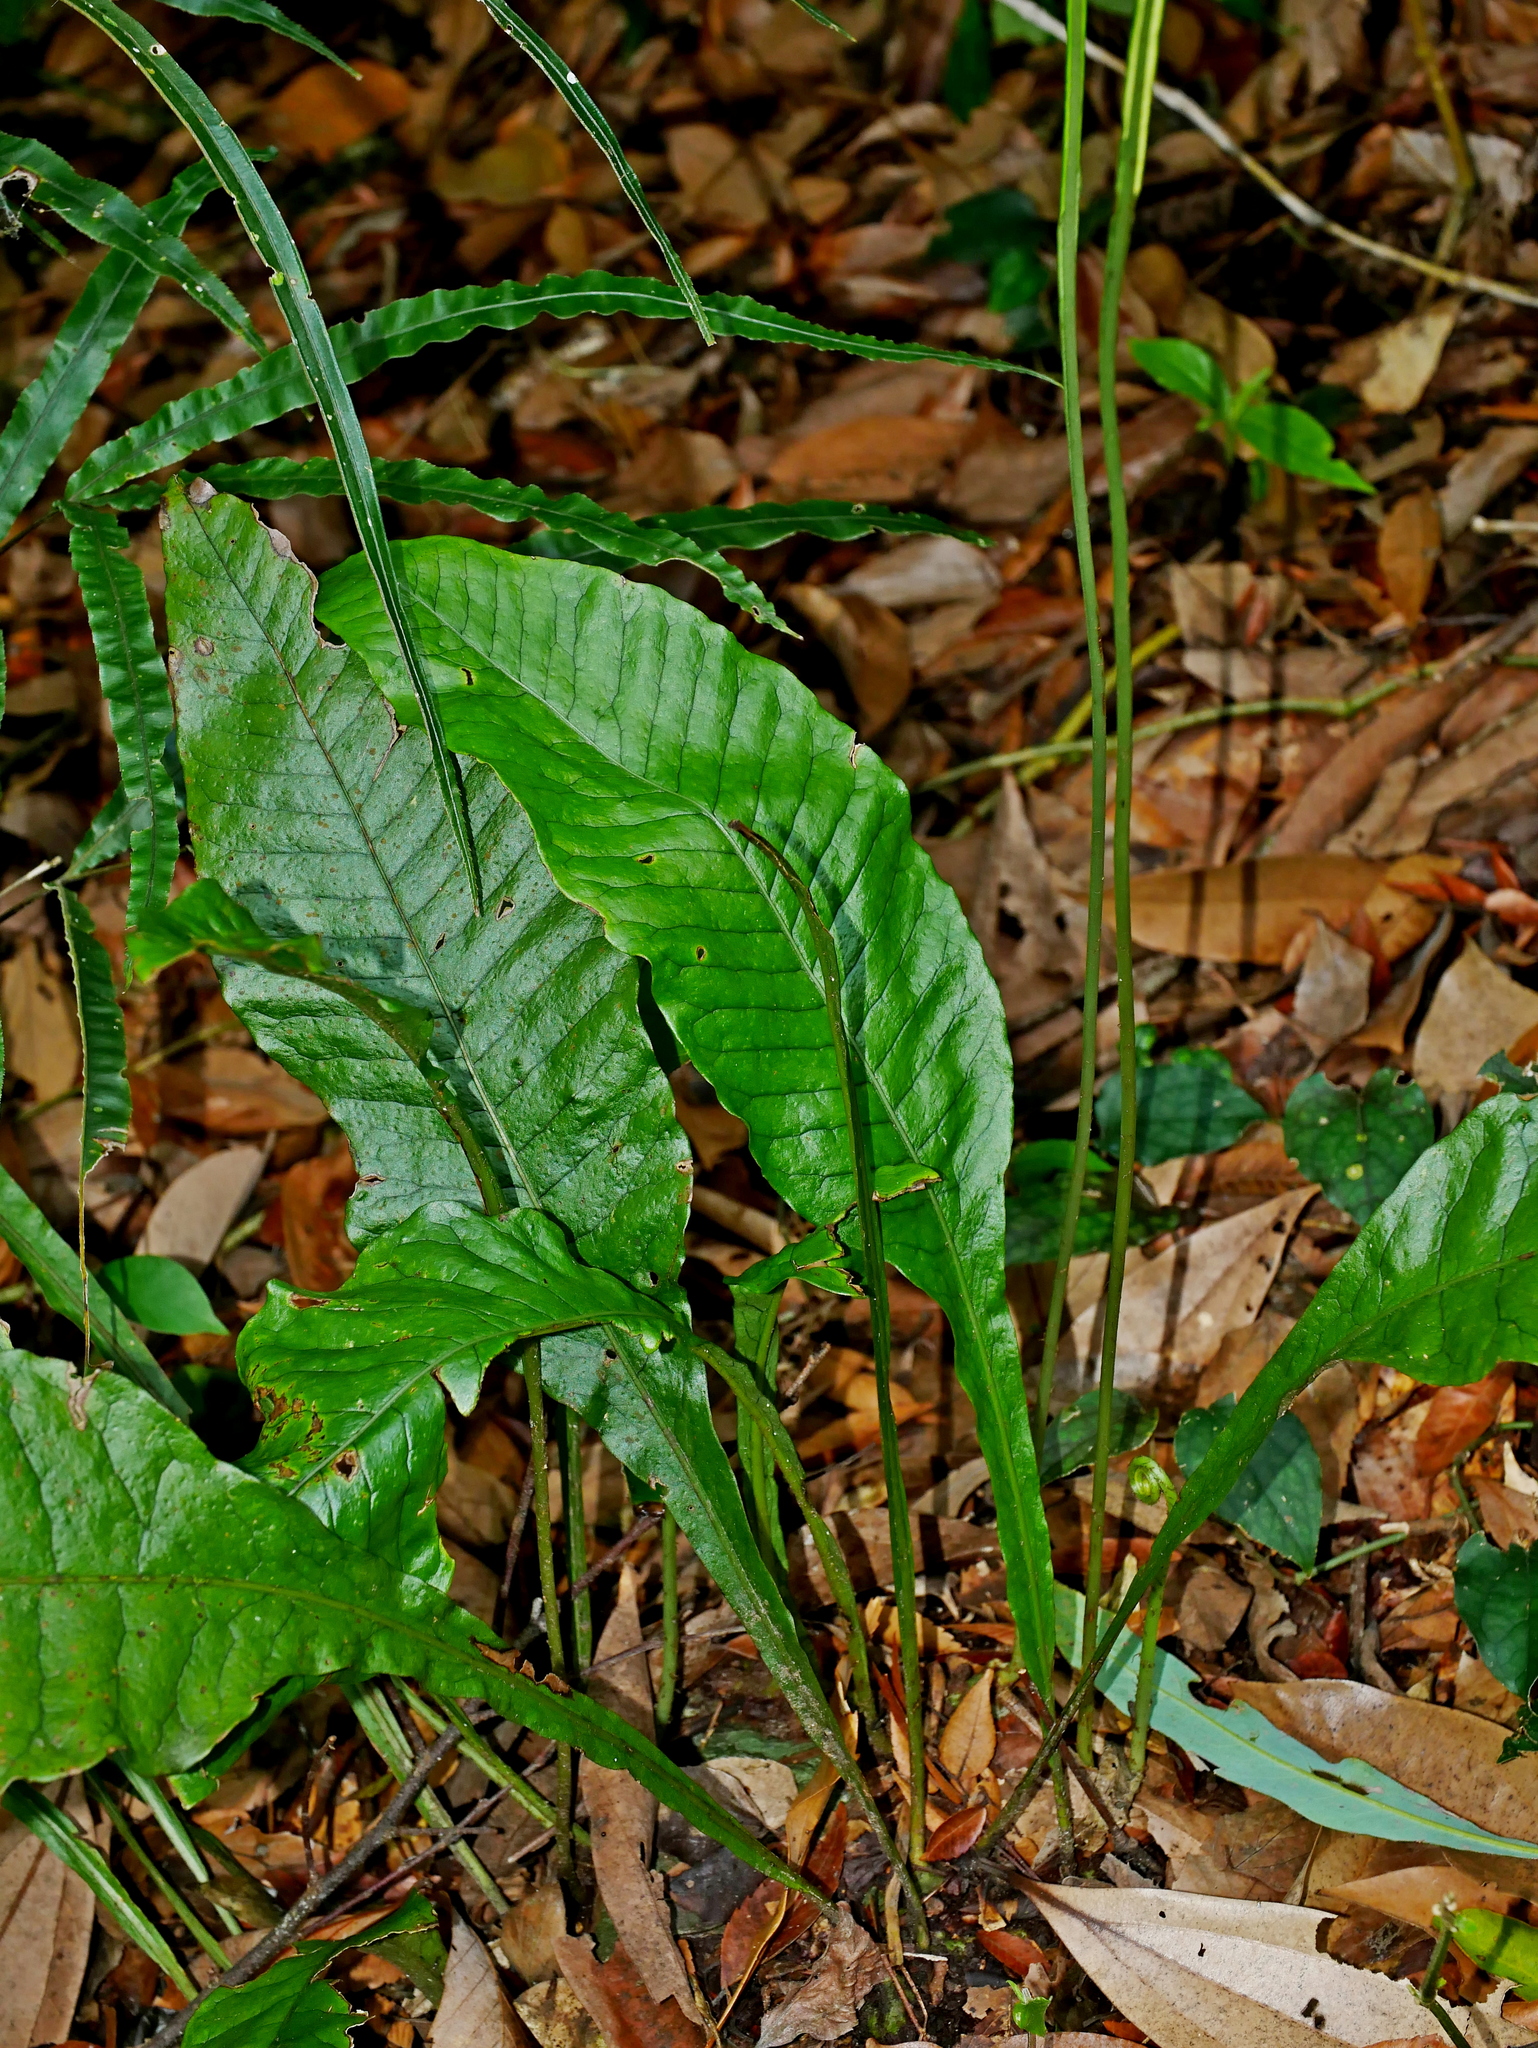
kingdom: Plantae
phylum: Tracheophyta
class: Polypodiopsida
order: Polypodiales
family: Polypodiaceae
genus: Leptochilus
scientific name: Leptochilus decurrens
